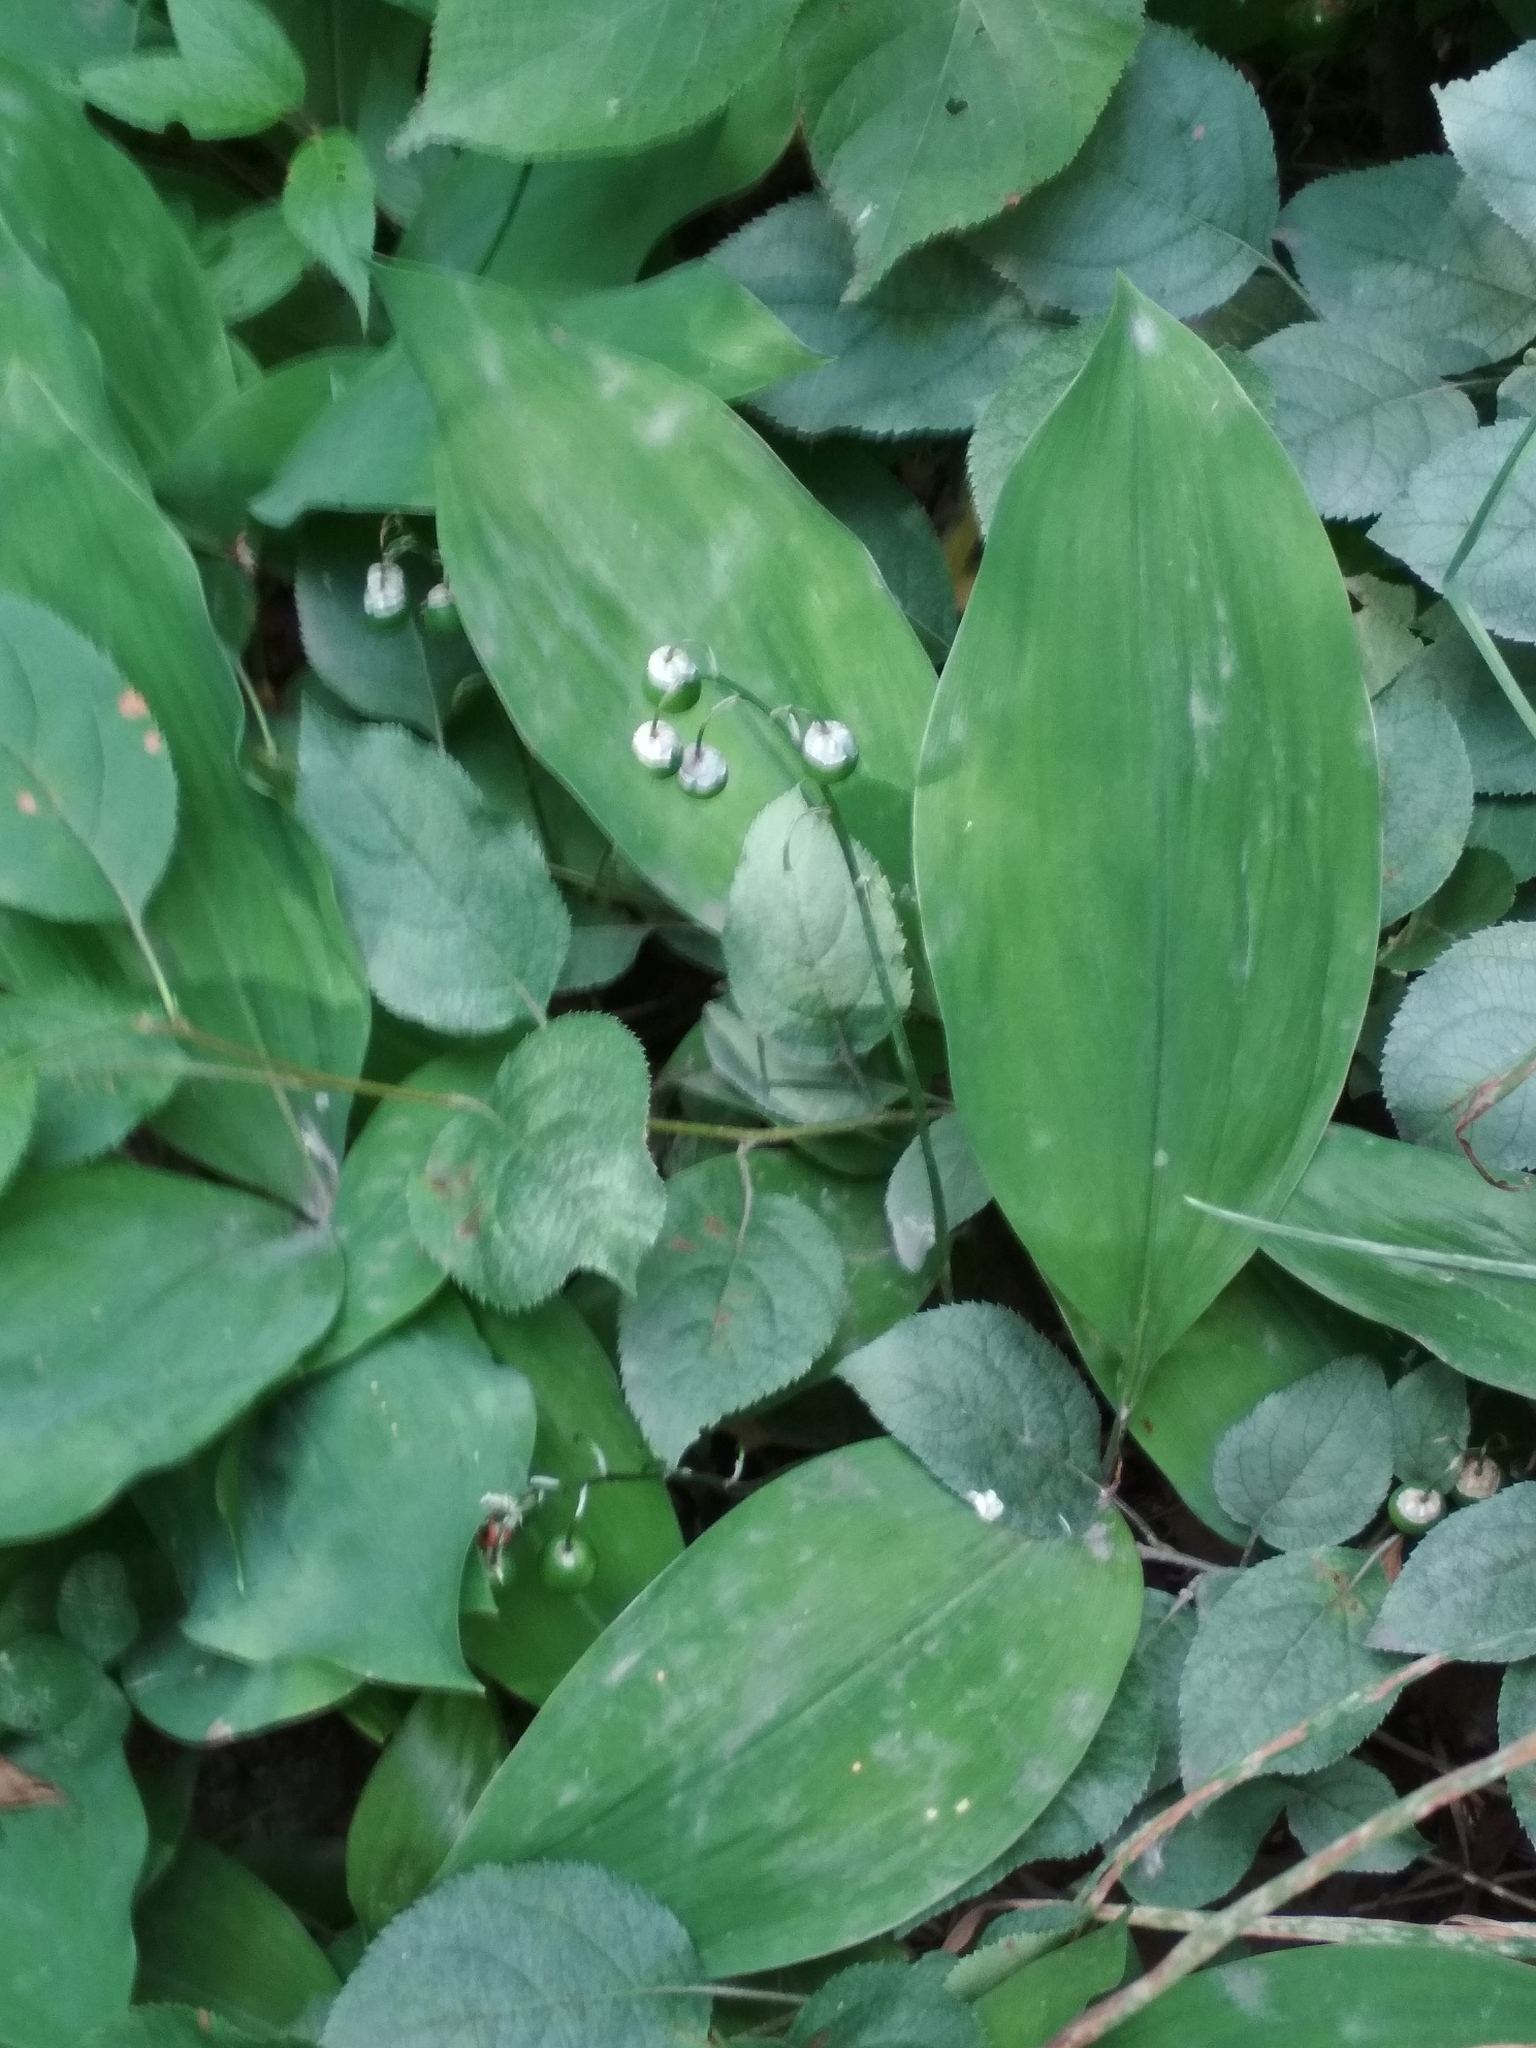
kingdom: Plantae
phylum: Tracheophyta
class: Liliopsida
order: Asparagales
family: Asparagaceae
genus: Convallaria
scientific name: Convallaria majalis
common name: Lily-of-the-valley
